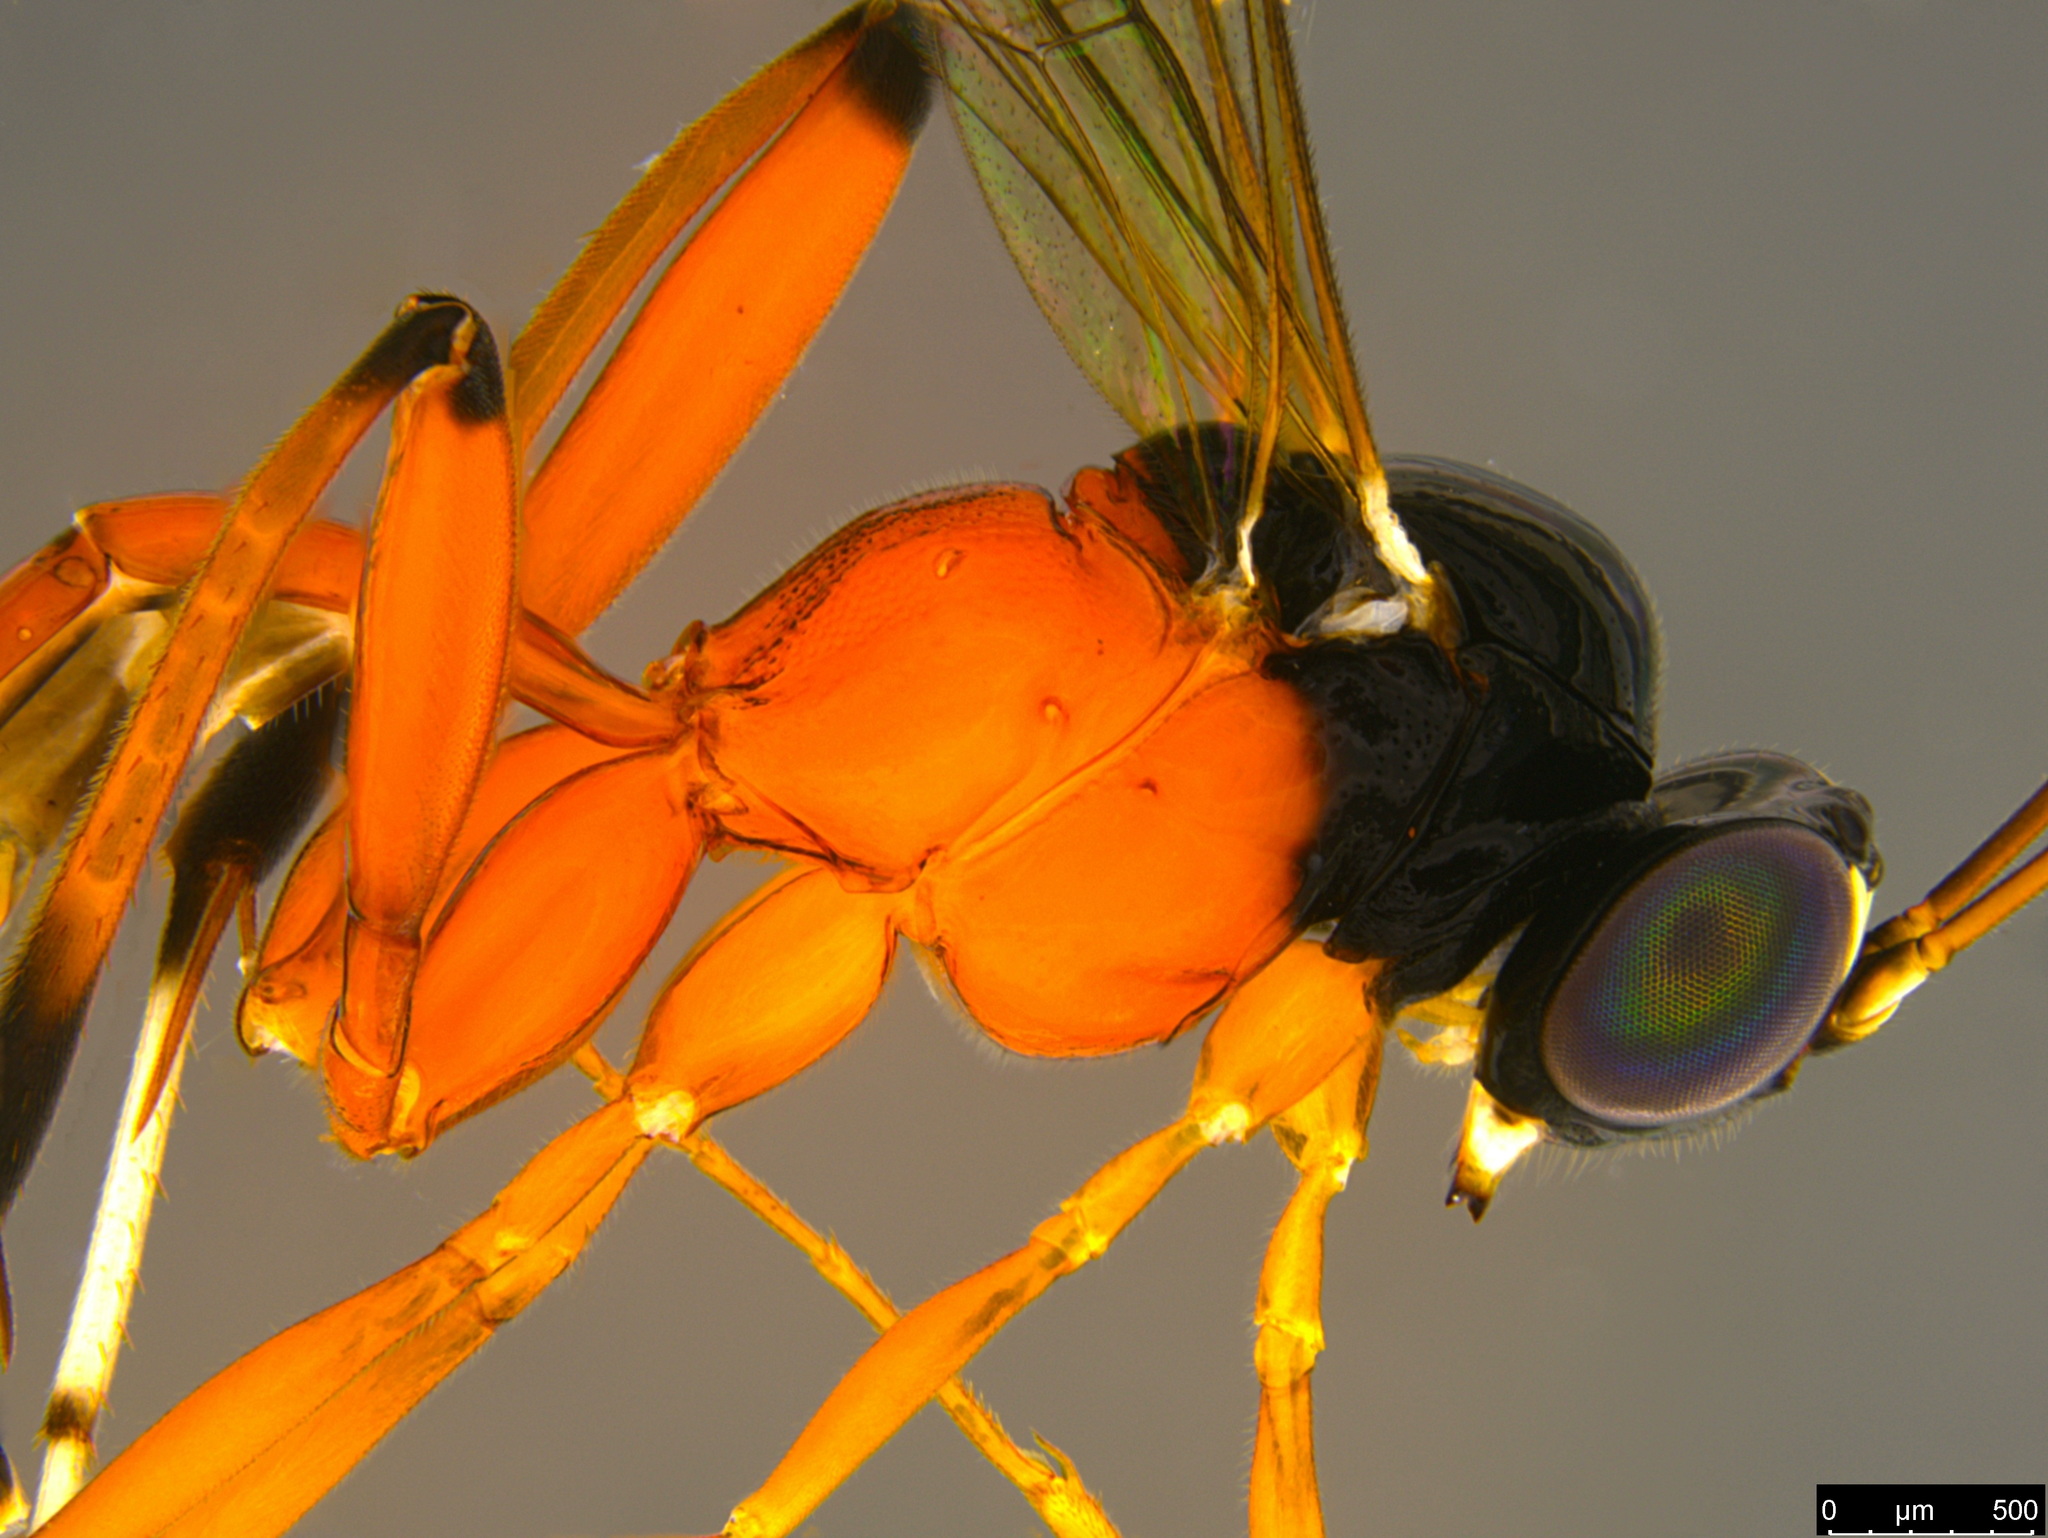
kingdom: Animalia
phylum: Arthropoda
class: Insecta
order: Hymenoptera
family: Ichneumonidae
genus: Leptobatopsis
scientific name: Leptobatopsis mesominiata
